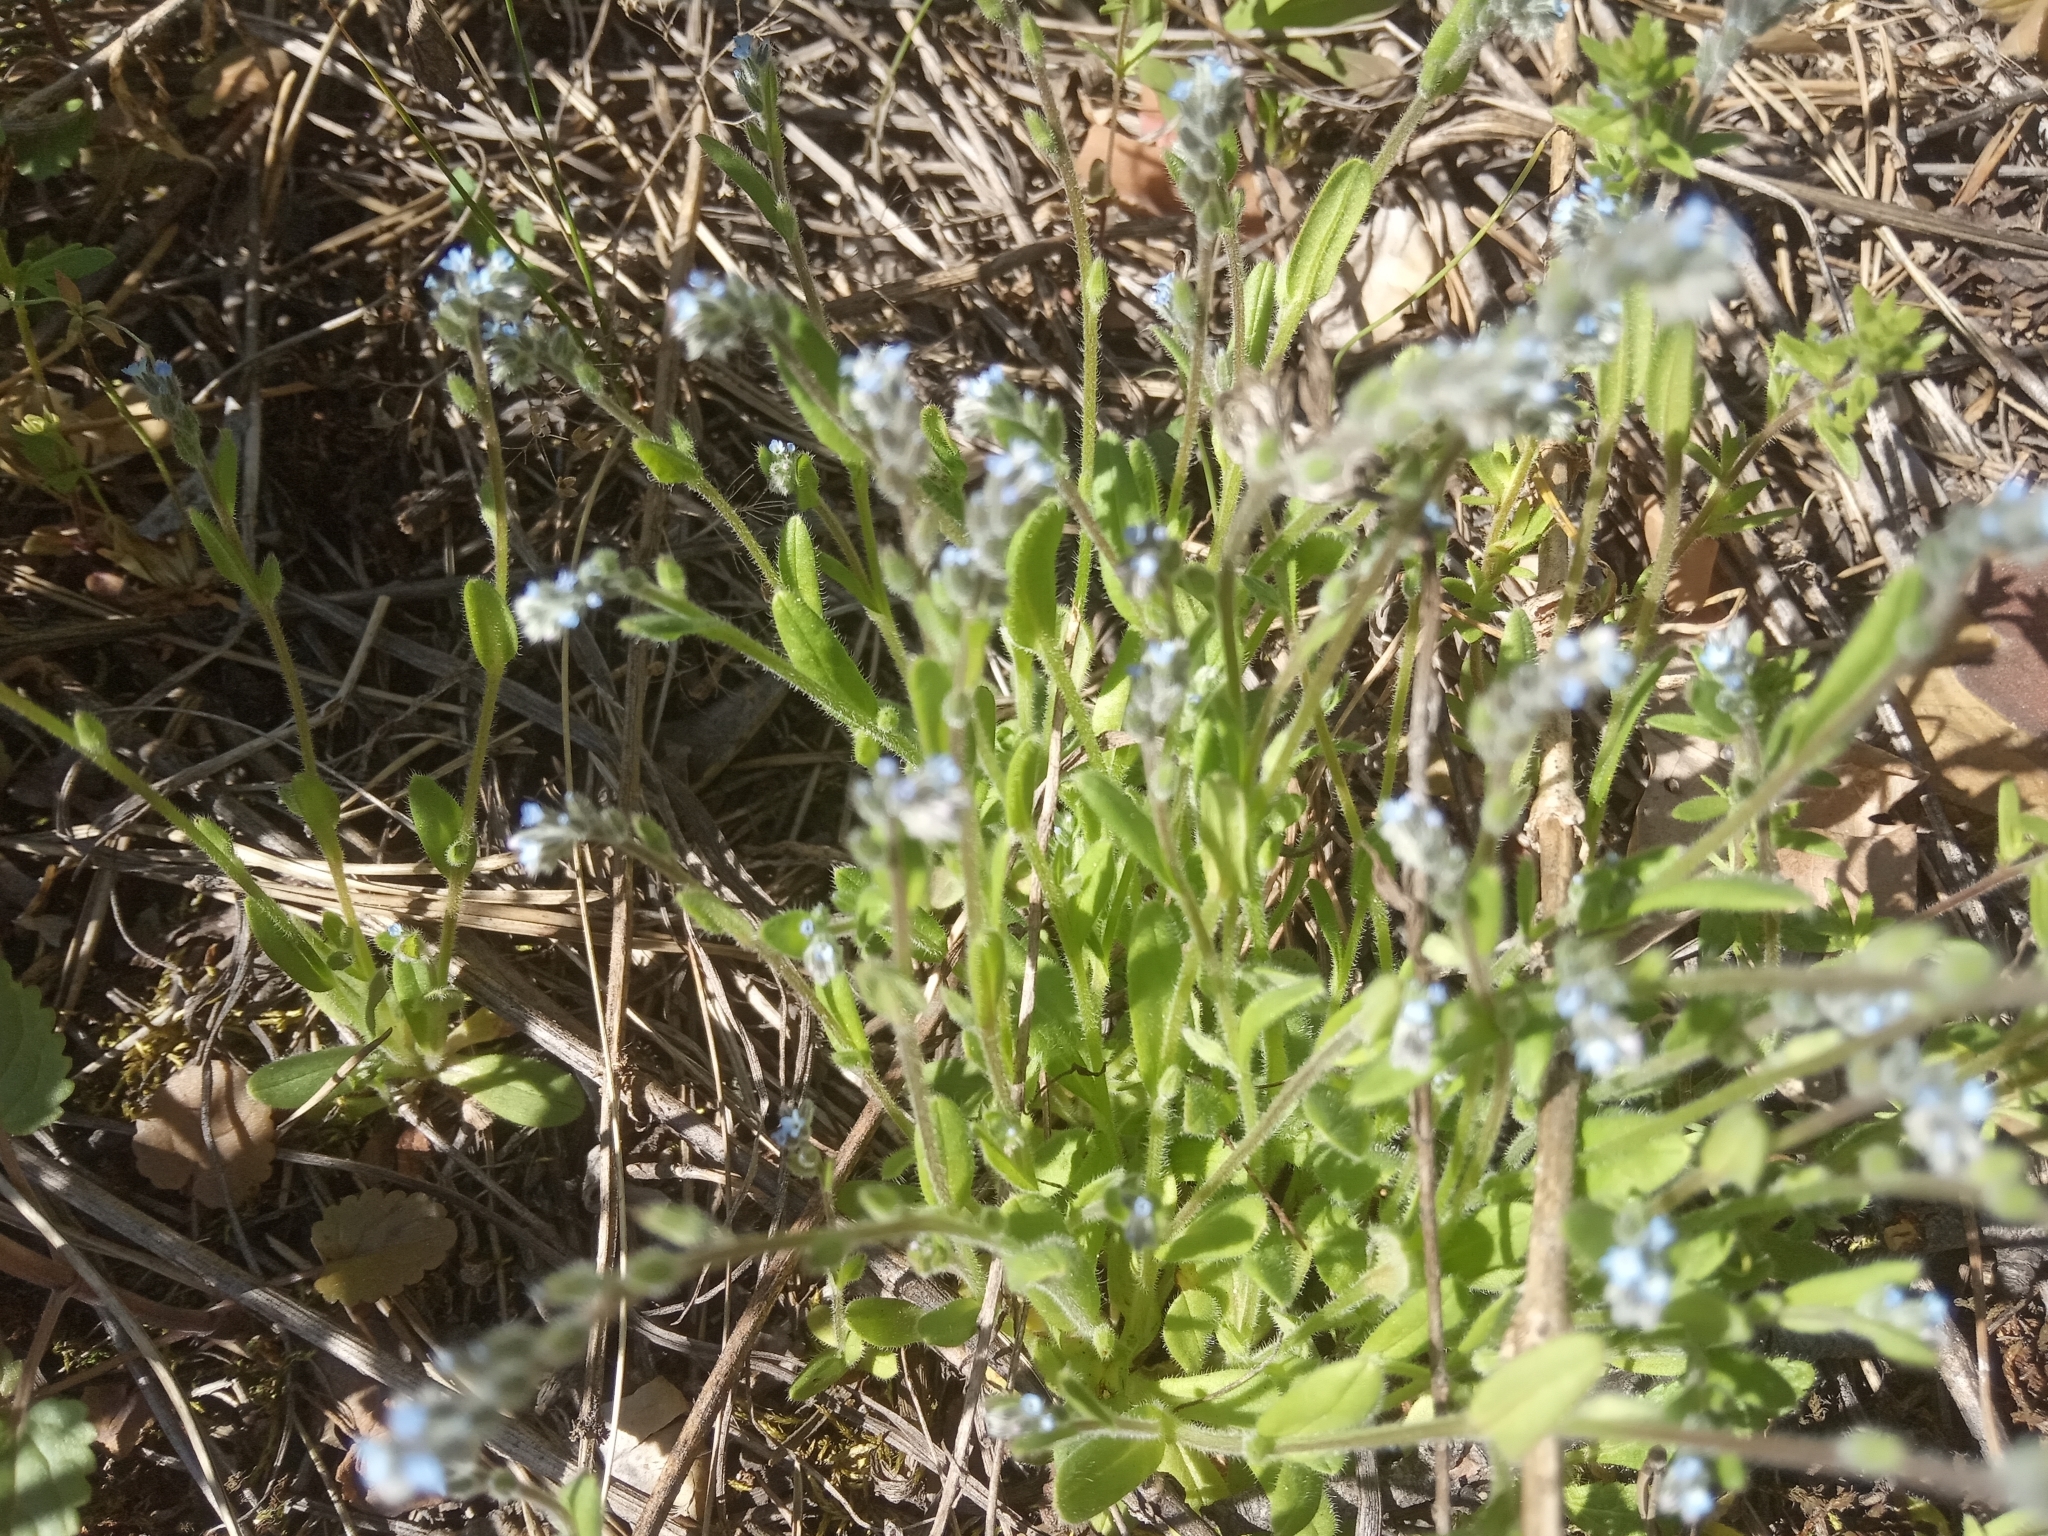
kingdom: Plantae
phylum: Tracheophyta
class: Magnoliopsida
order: Boraginales
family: Boraginaceae
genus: Myosotis
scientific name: Myosotis stricta
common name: Strict forget-me-not
